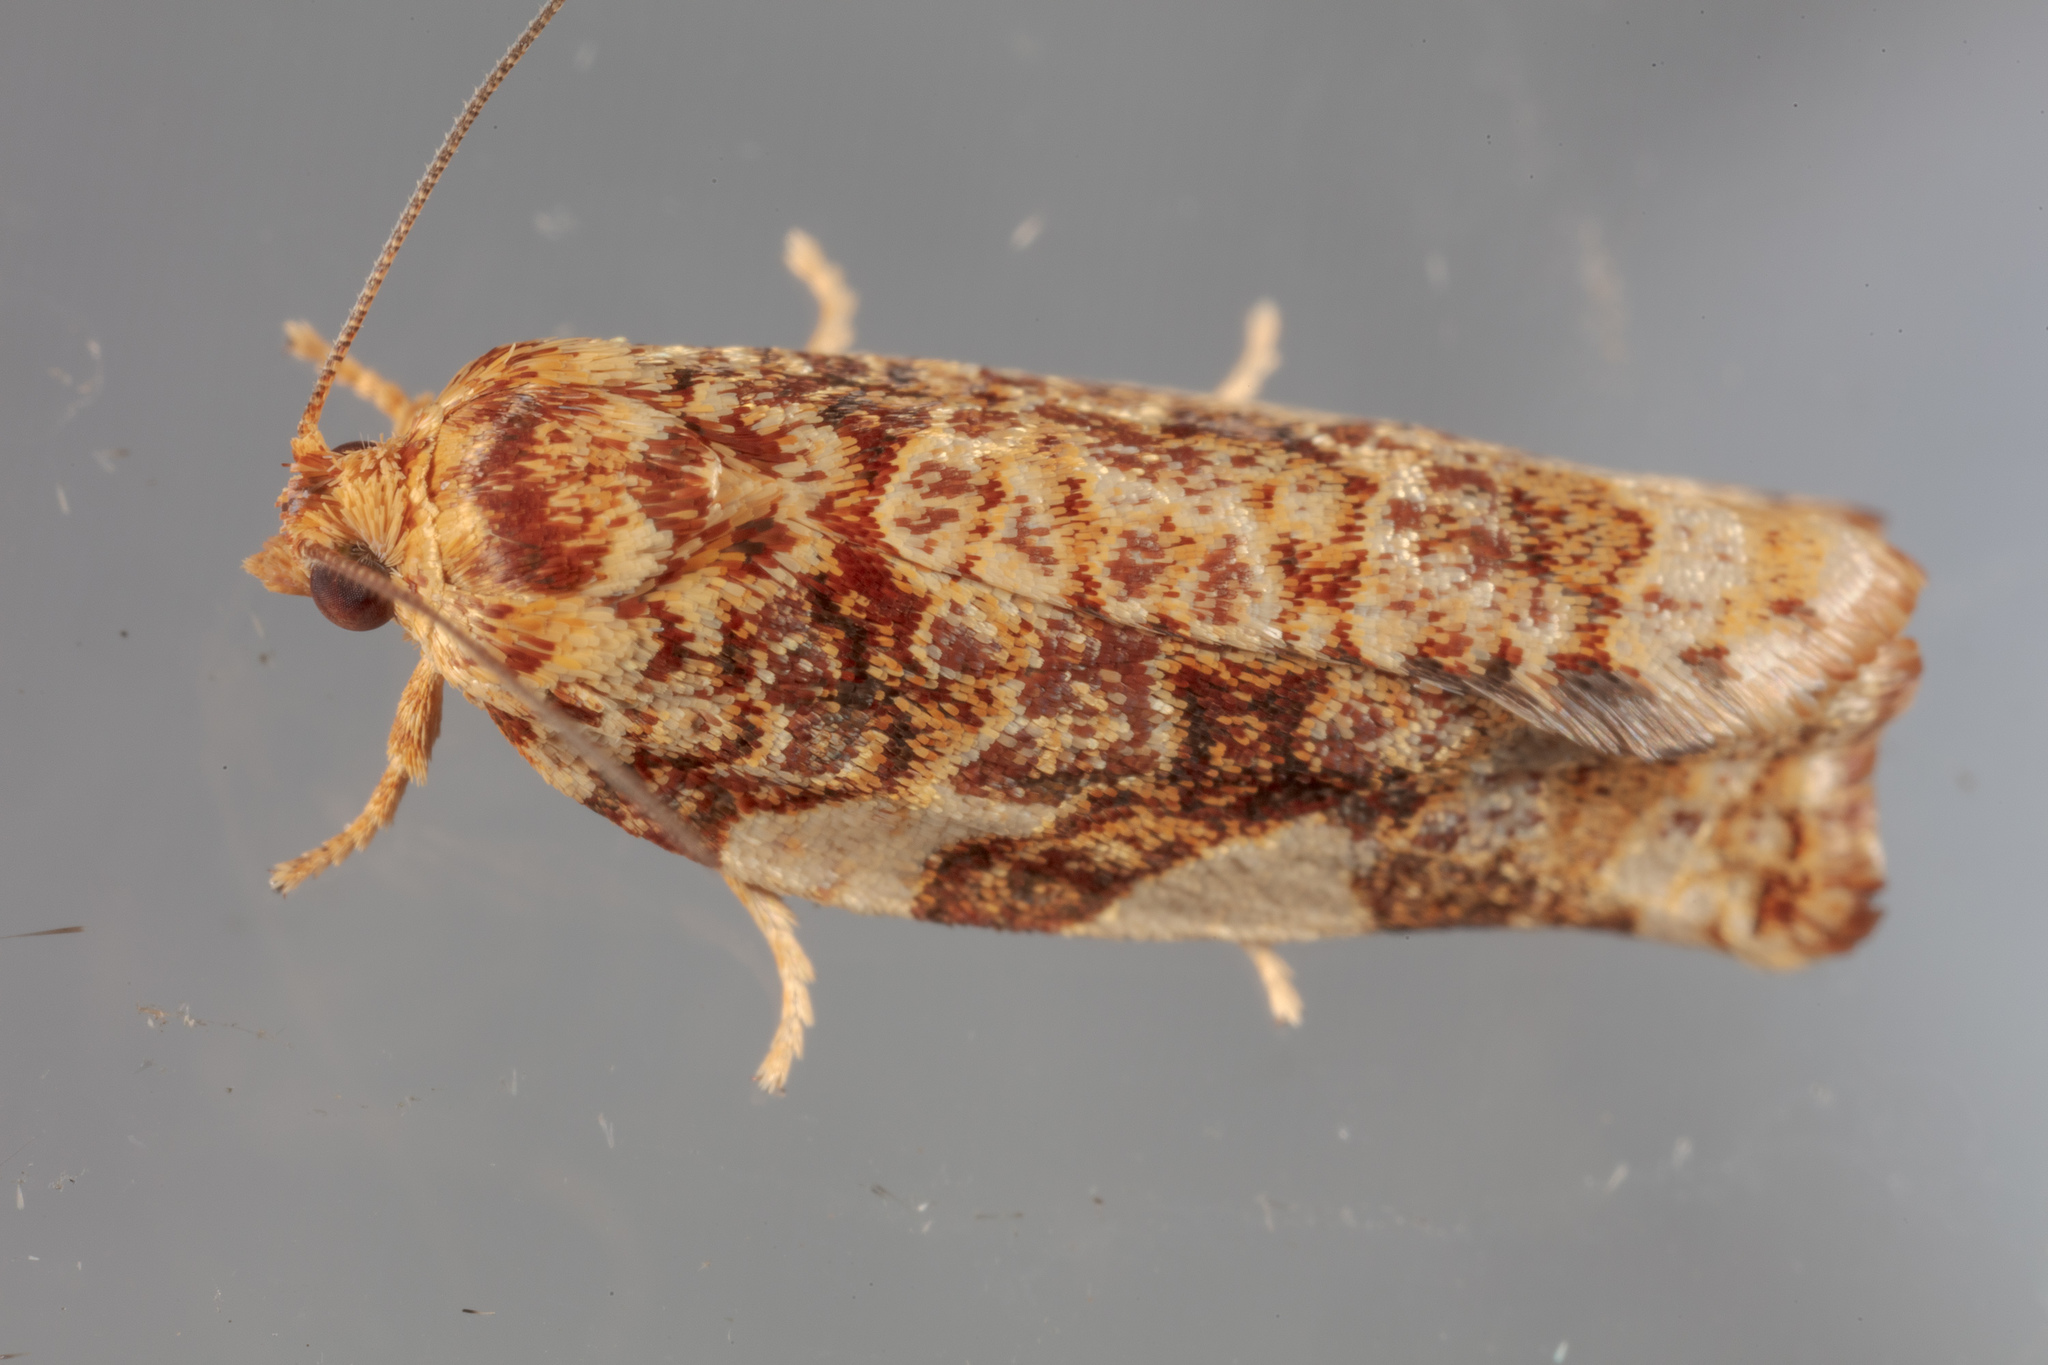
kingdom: Animalia
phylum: Arthropoda
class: Insecta
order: Lepidoptera
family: Tortricidae
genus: Archips
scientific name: Archips argyrospila
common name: Fruit-tree leafroller moth
